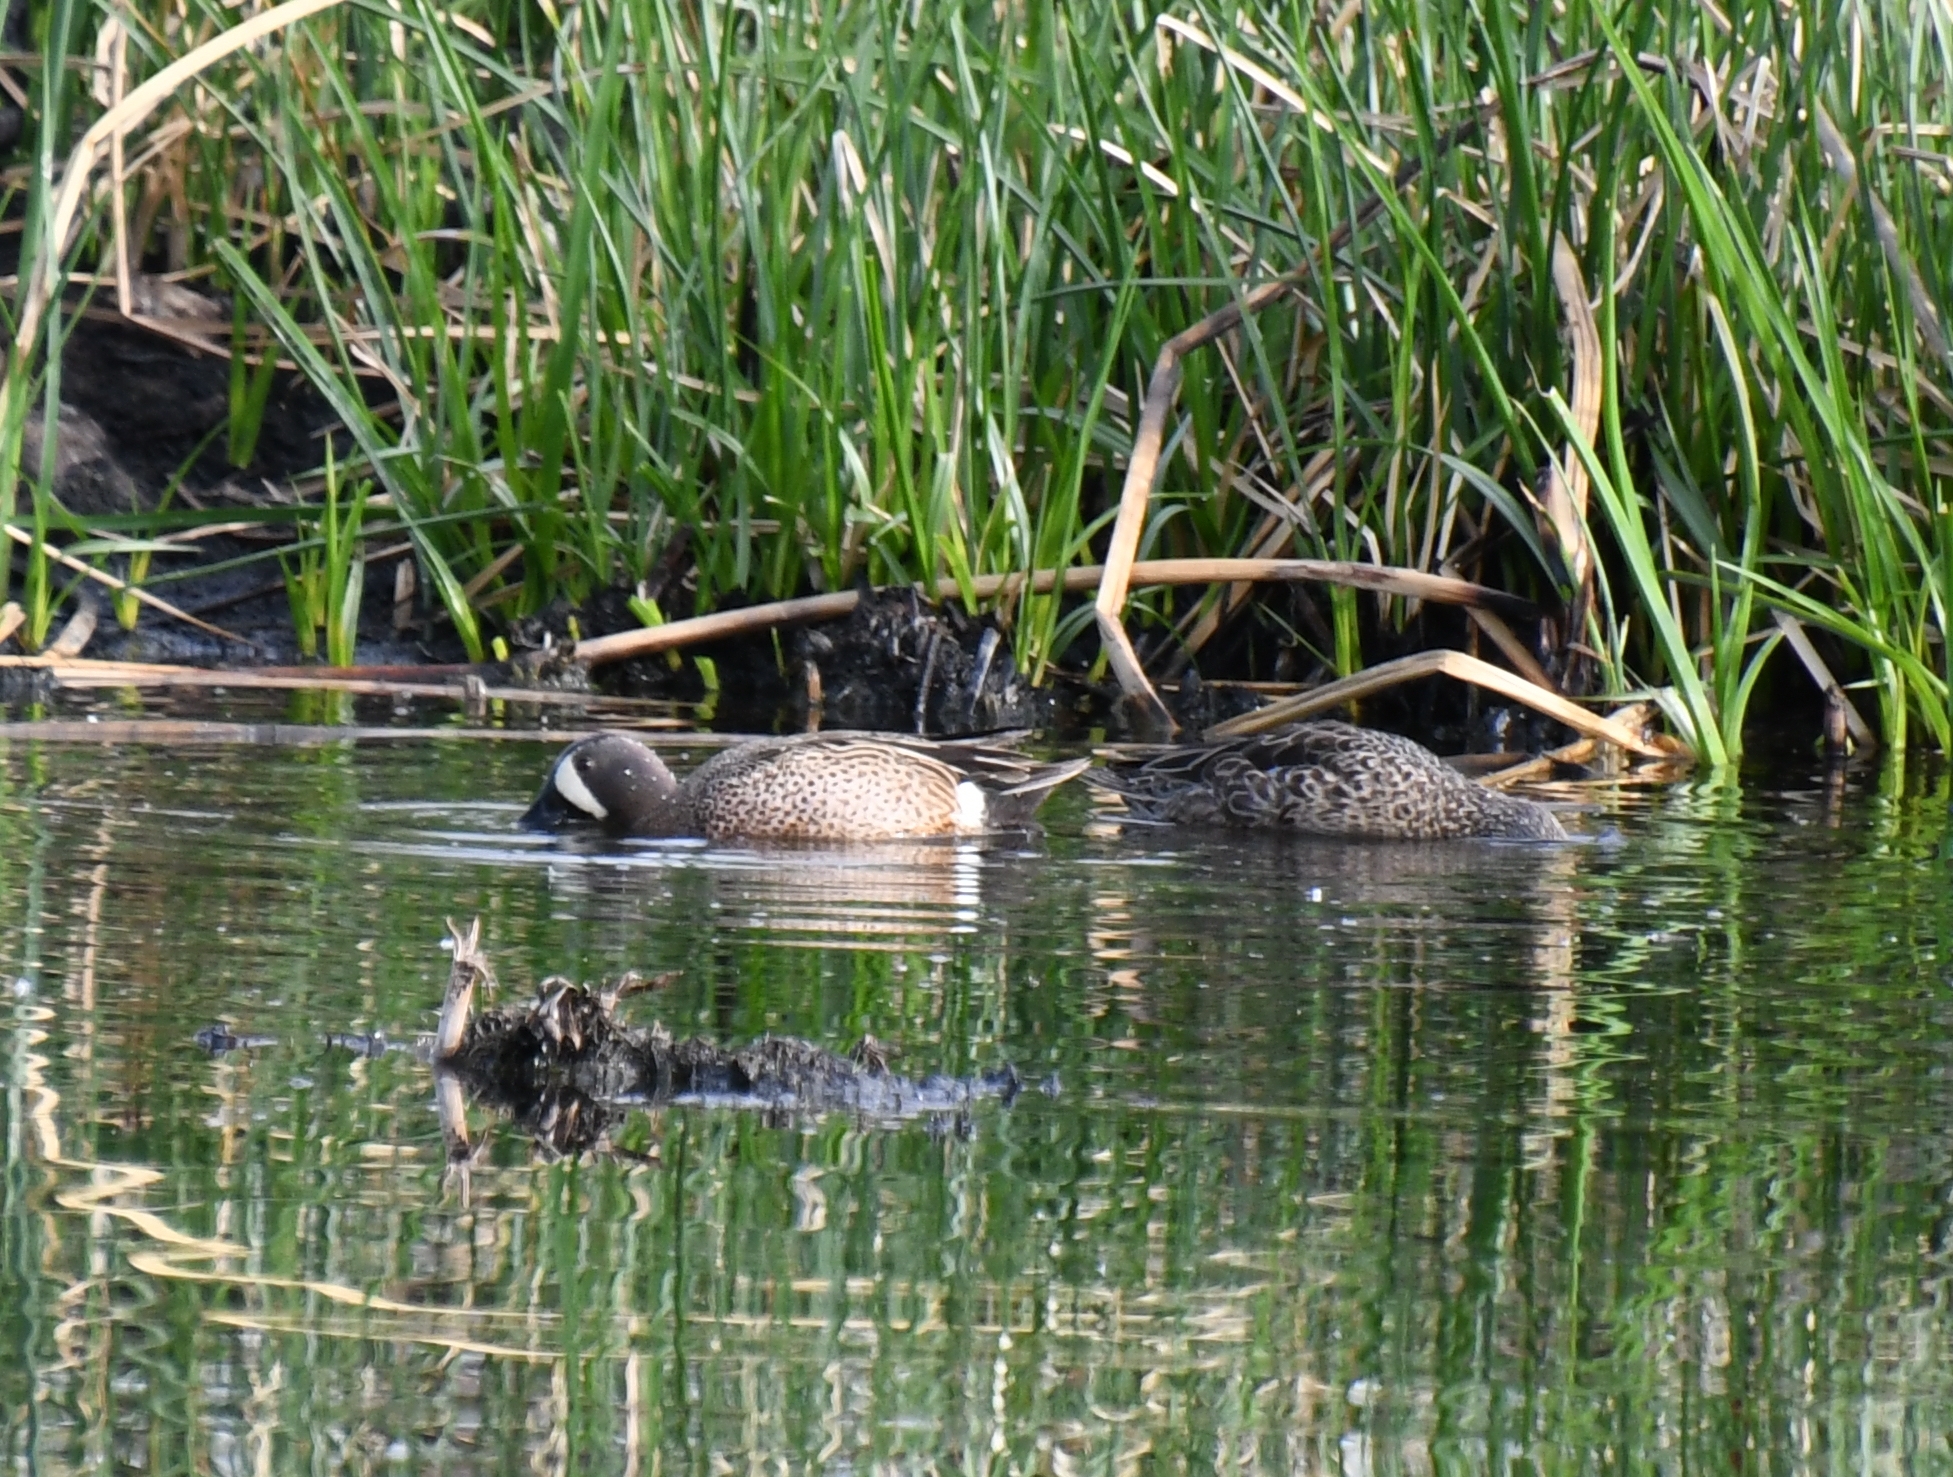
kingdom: Animalia
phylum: Chordata
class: Aves
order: Anseriformes
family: Anatidae
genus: Spatula
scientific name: Spatula discors
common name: Blue-winged teal
